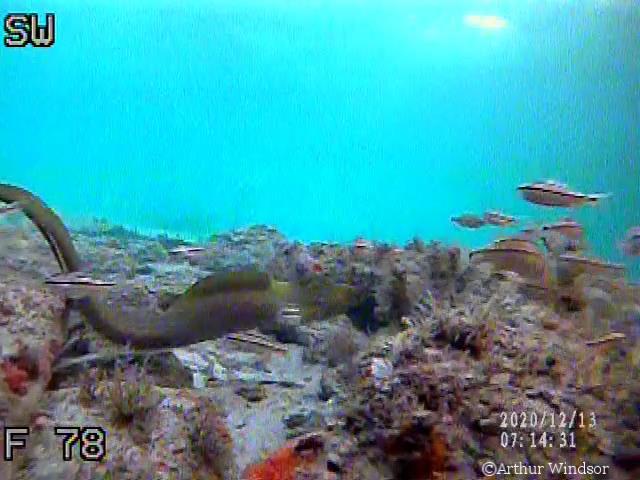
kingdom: Animalia
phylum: Chordata
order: Anguilliformes
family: Muraenidae
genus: Gymnothorax
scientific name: Gymnothorax funebris
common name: Green moray
